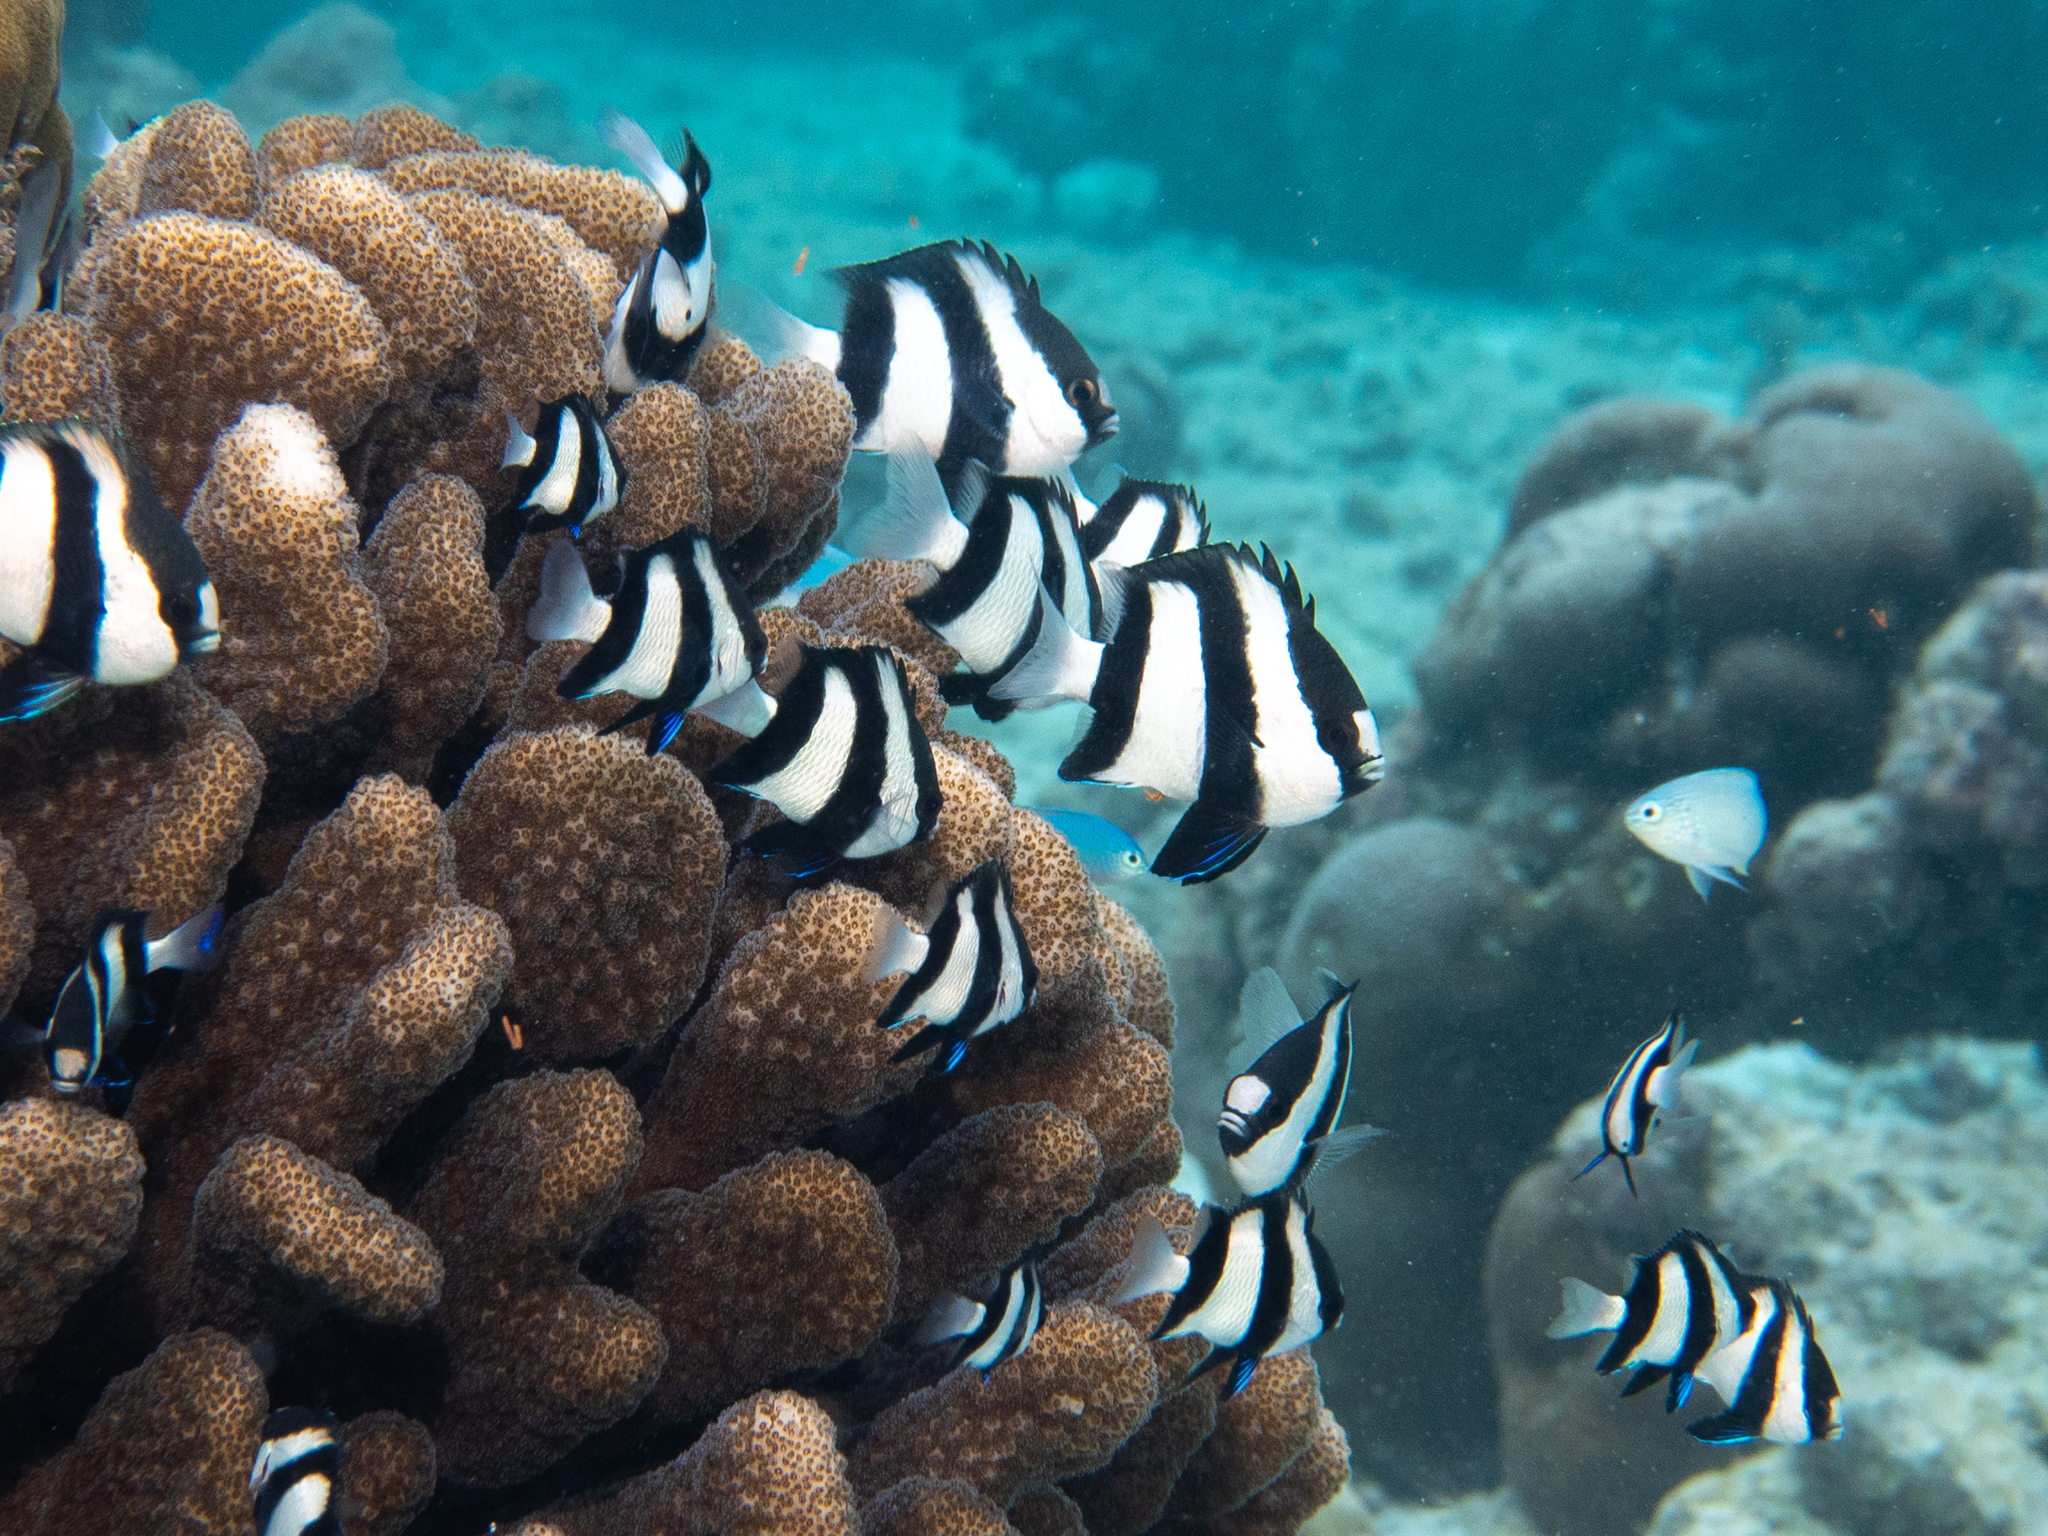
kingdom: Animalia
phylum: Chordata
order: Perciformes
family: Pomacentridae
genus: Dascyllus
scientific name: Dascyllus abudafur
